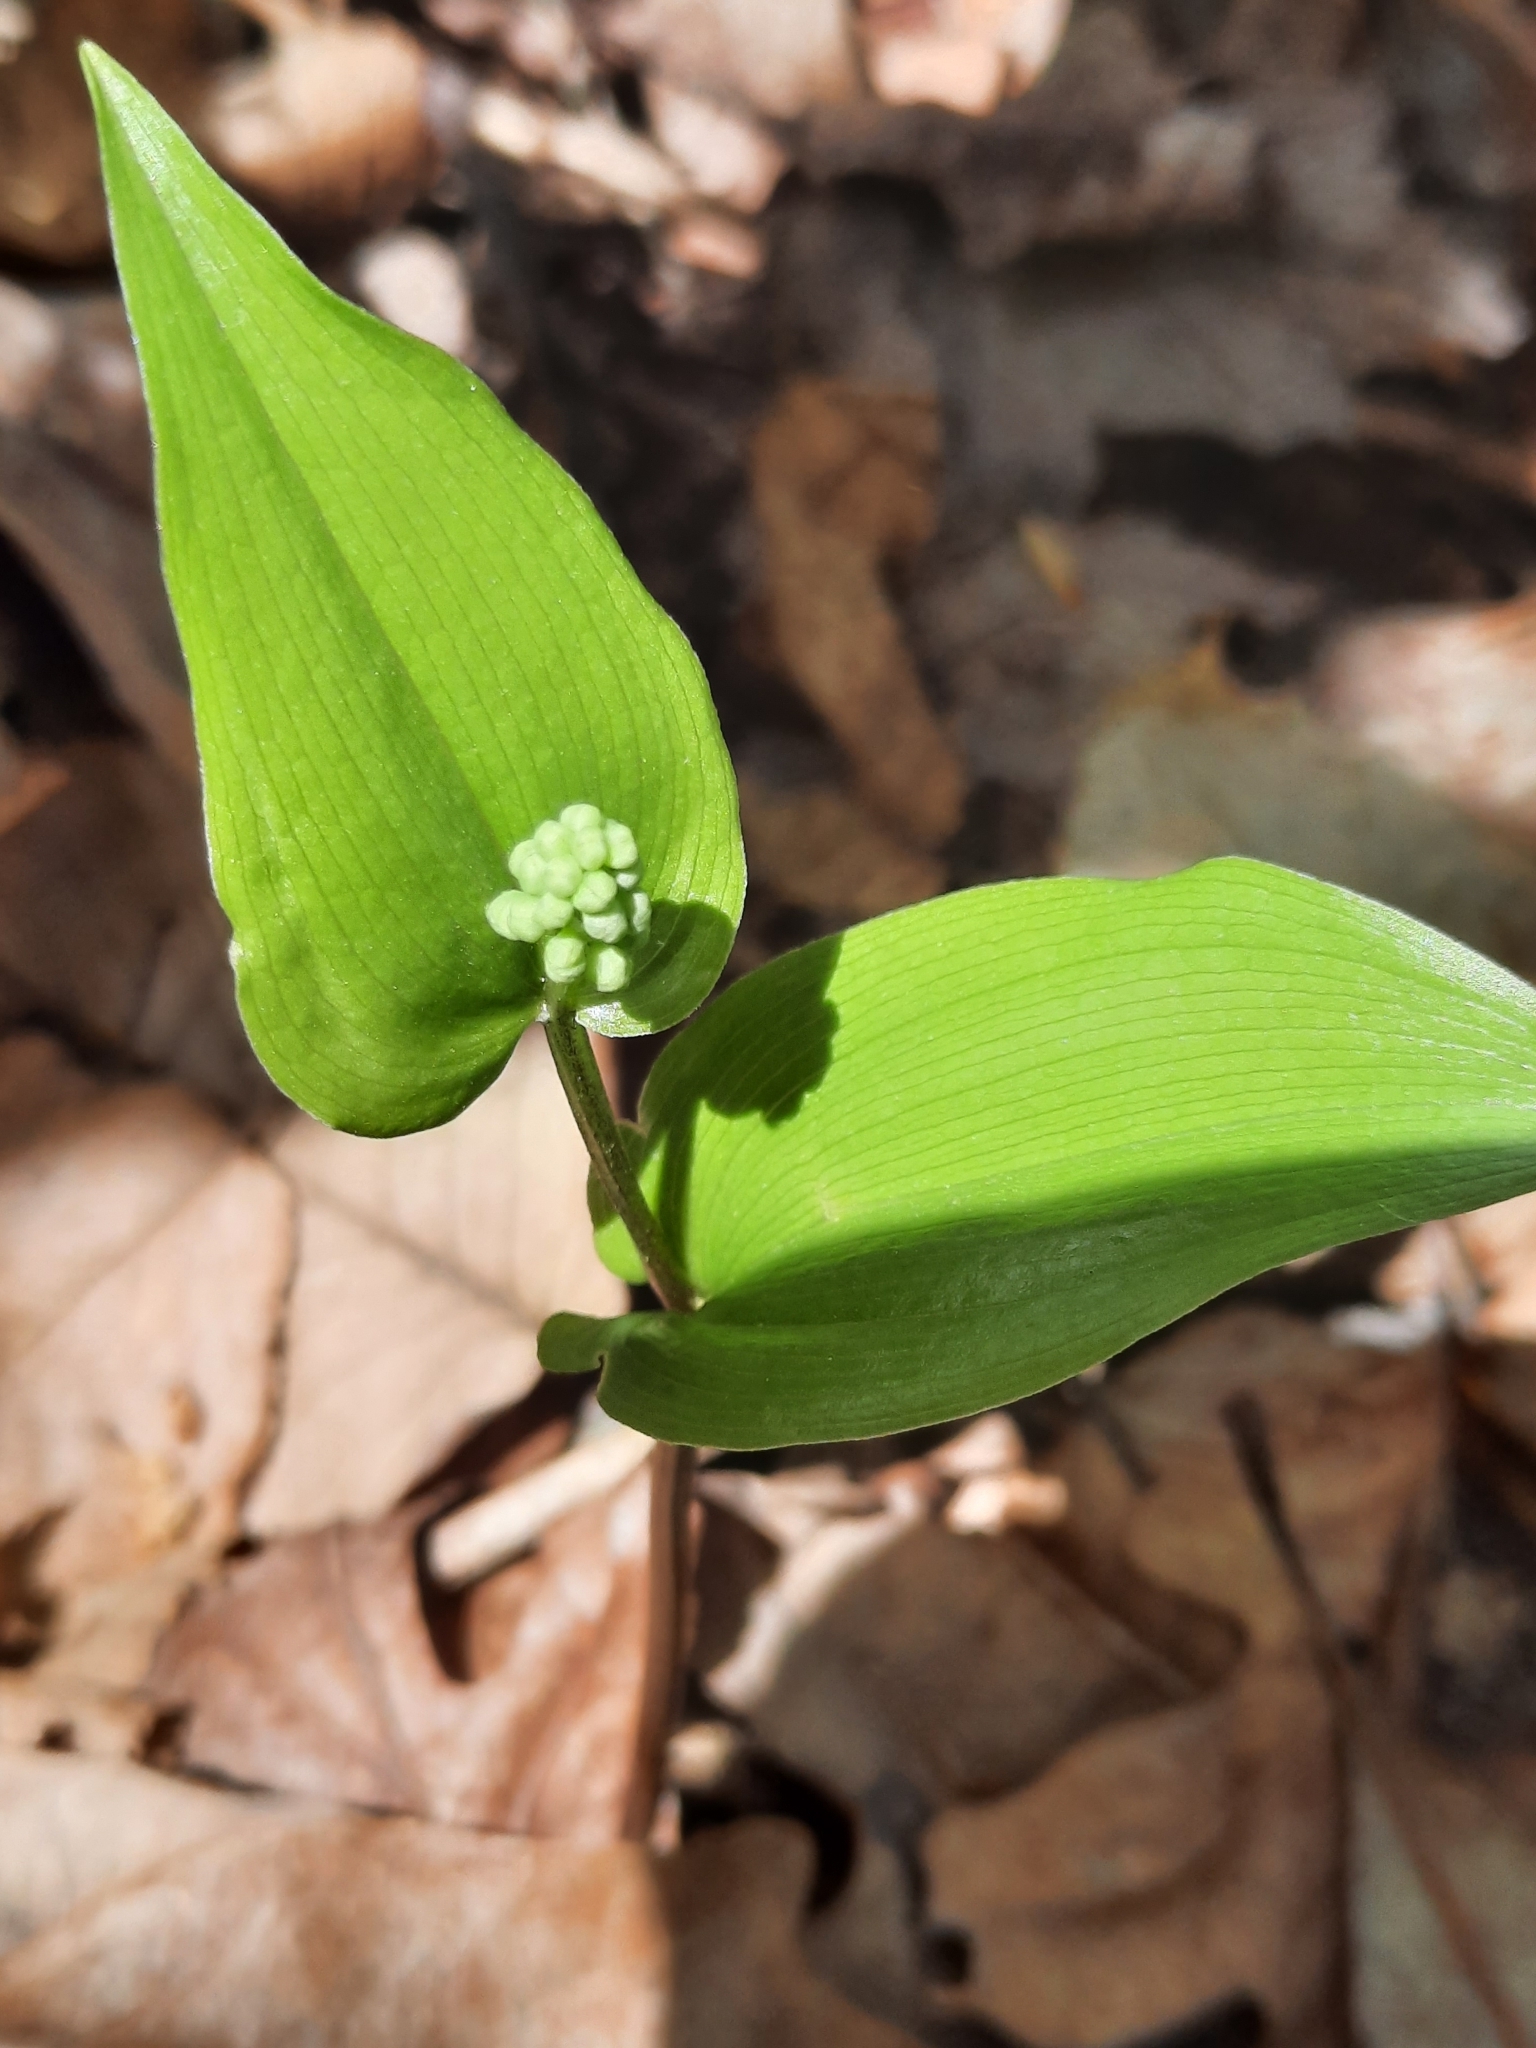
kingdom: Plantae
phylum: Tracheophyta
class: Liliopsida
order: Asparagales
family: Asparagaceae
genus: Maianthemum
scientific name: Maianthemum canadense
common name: False lily-of-the-valley
